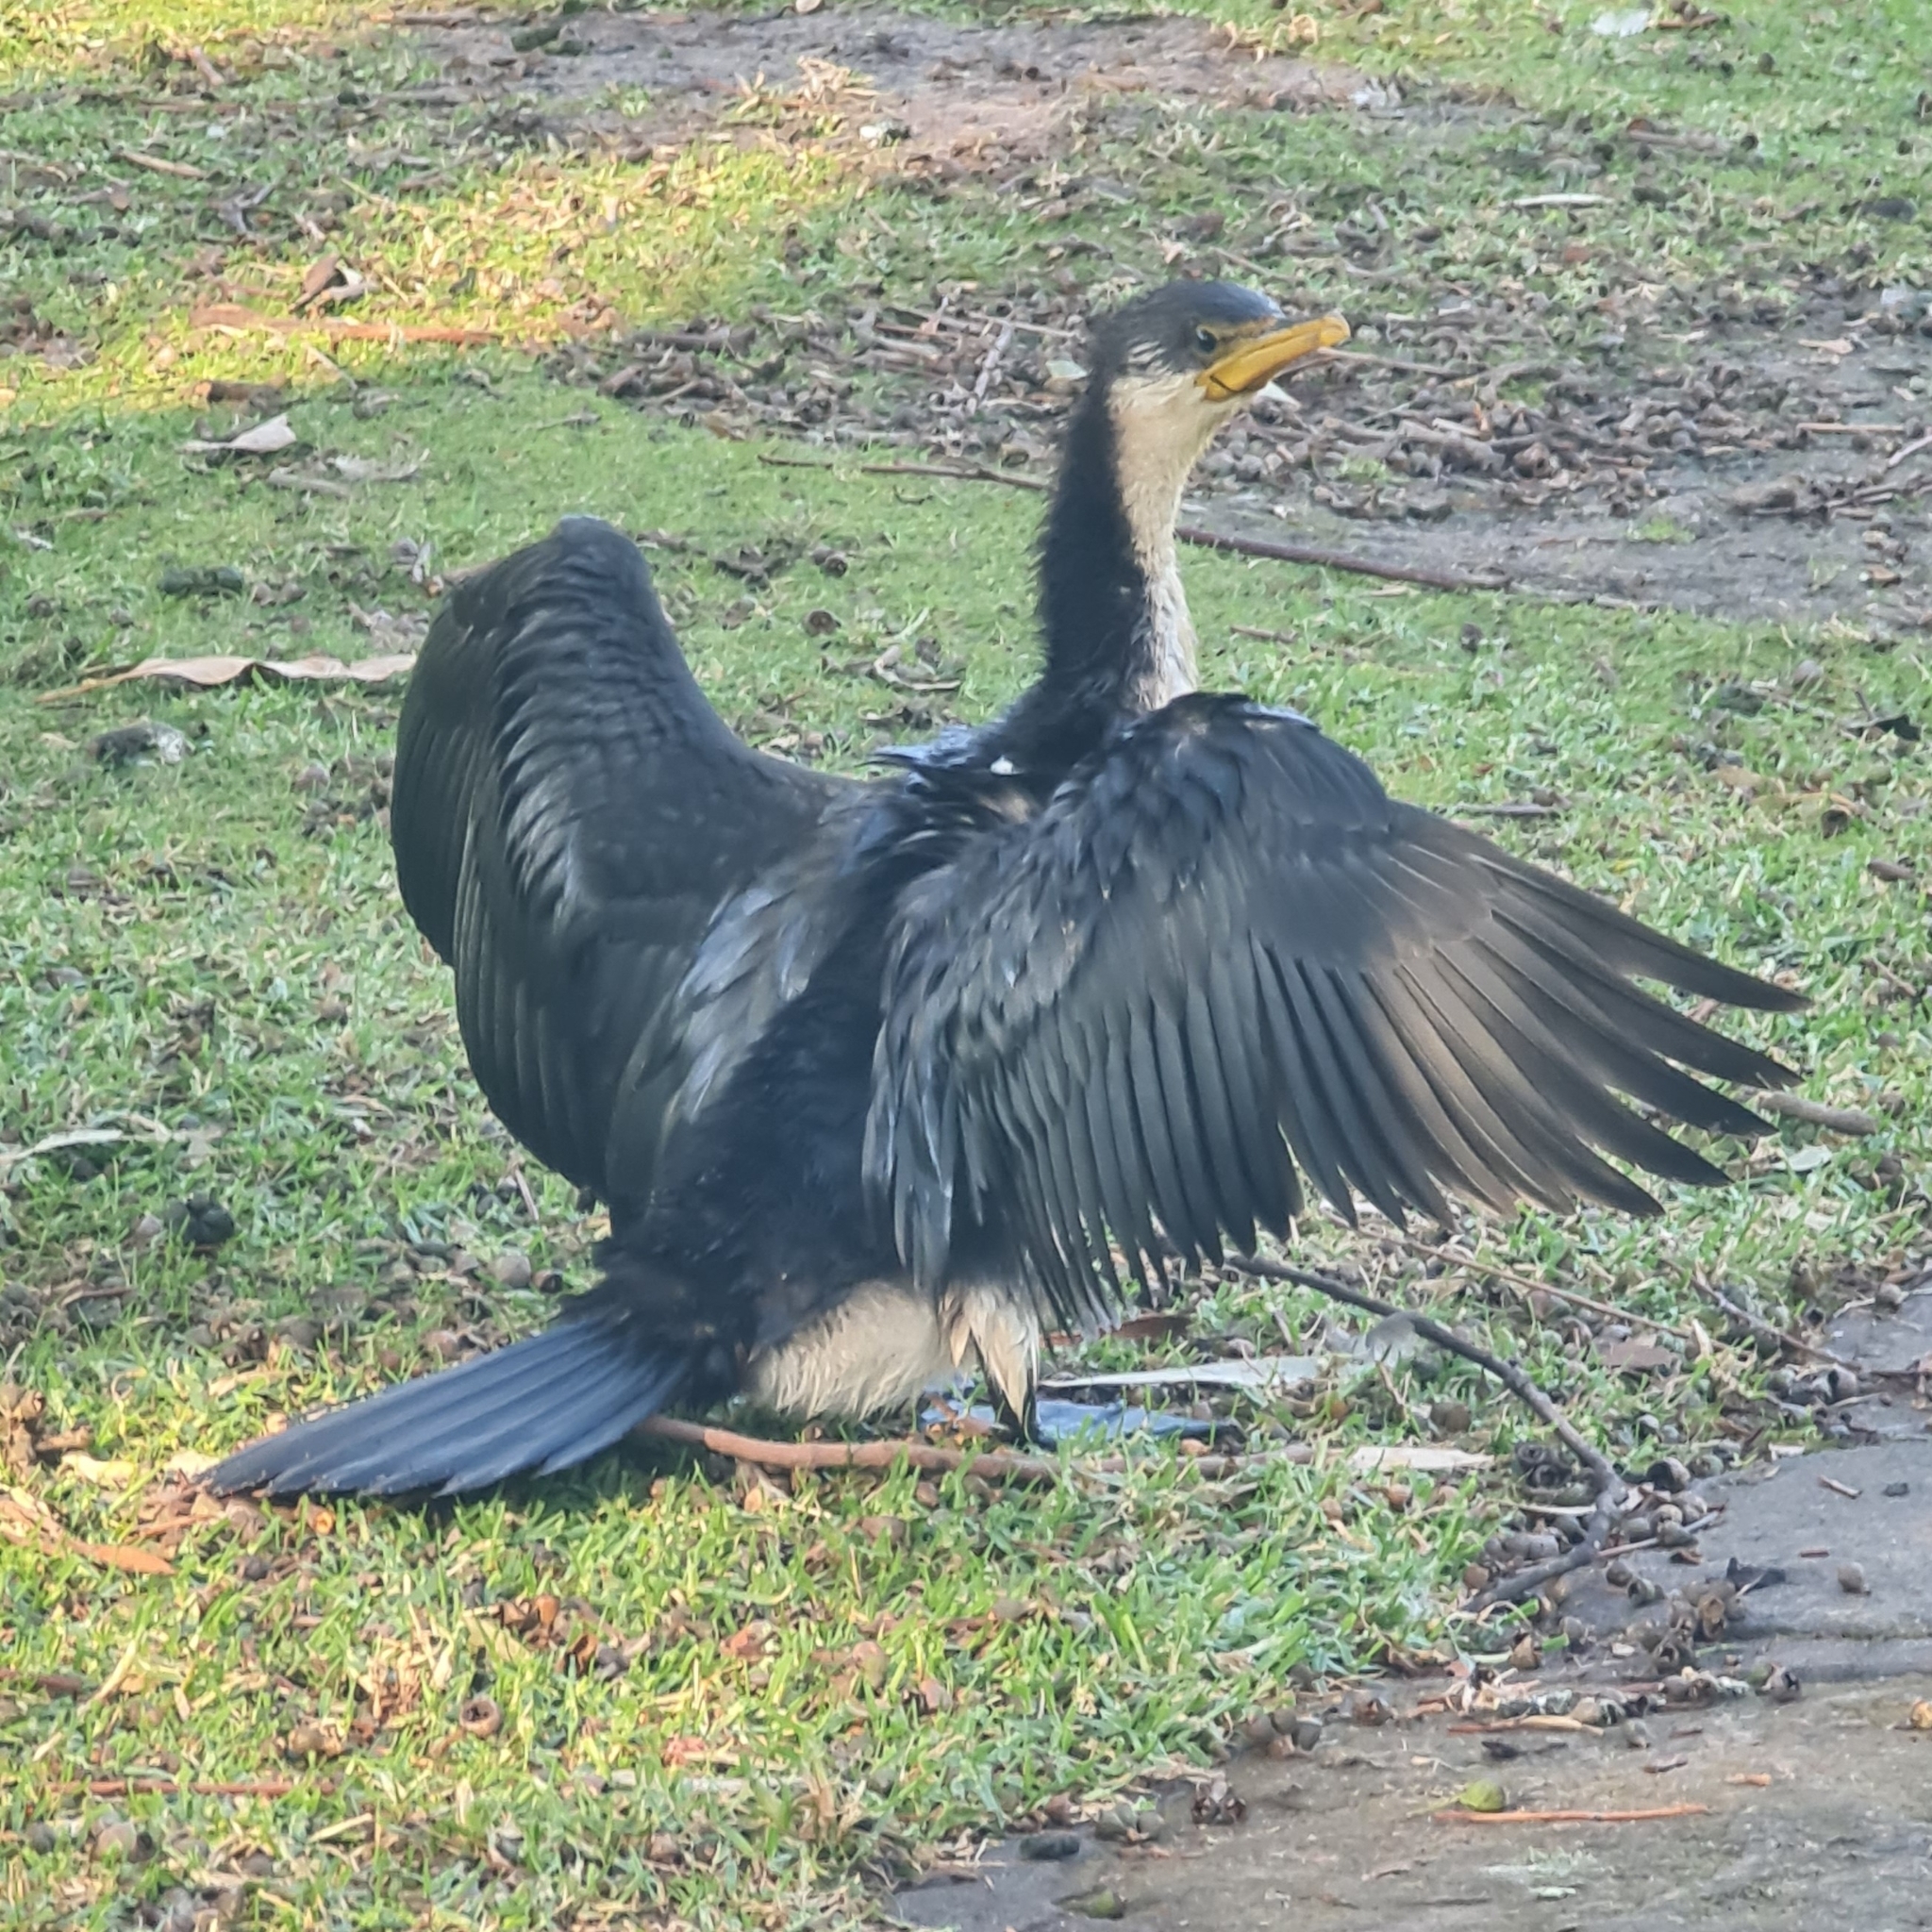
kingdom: Animalia
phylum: Chordata
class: Aves
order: Suliformes
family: Phalacrocoracidae
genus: Microcarbo
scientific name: Microcarbo melanoleucos
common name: Little pied cormorant
